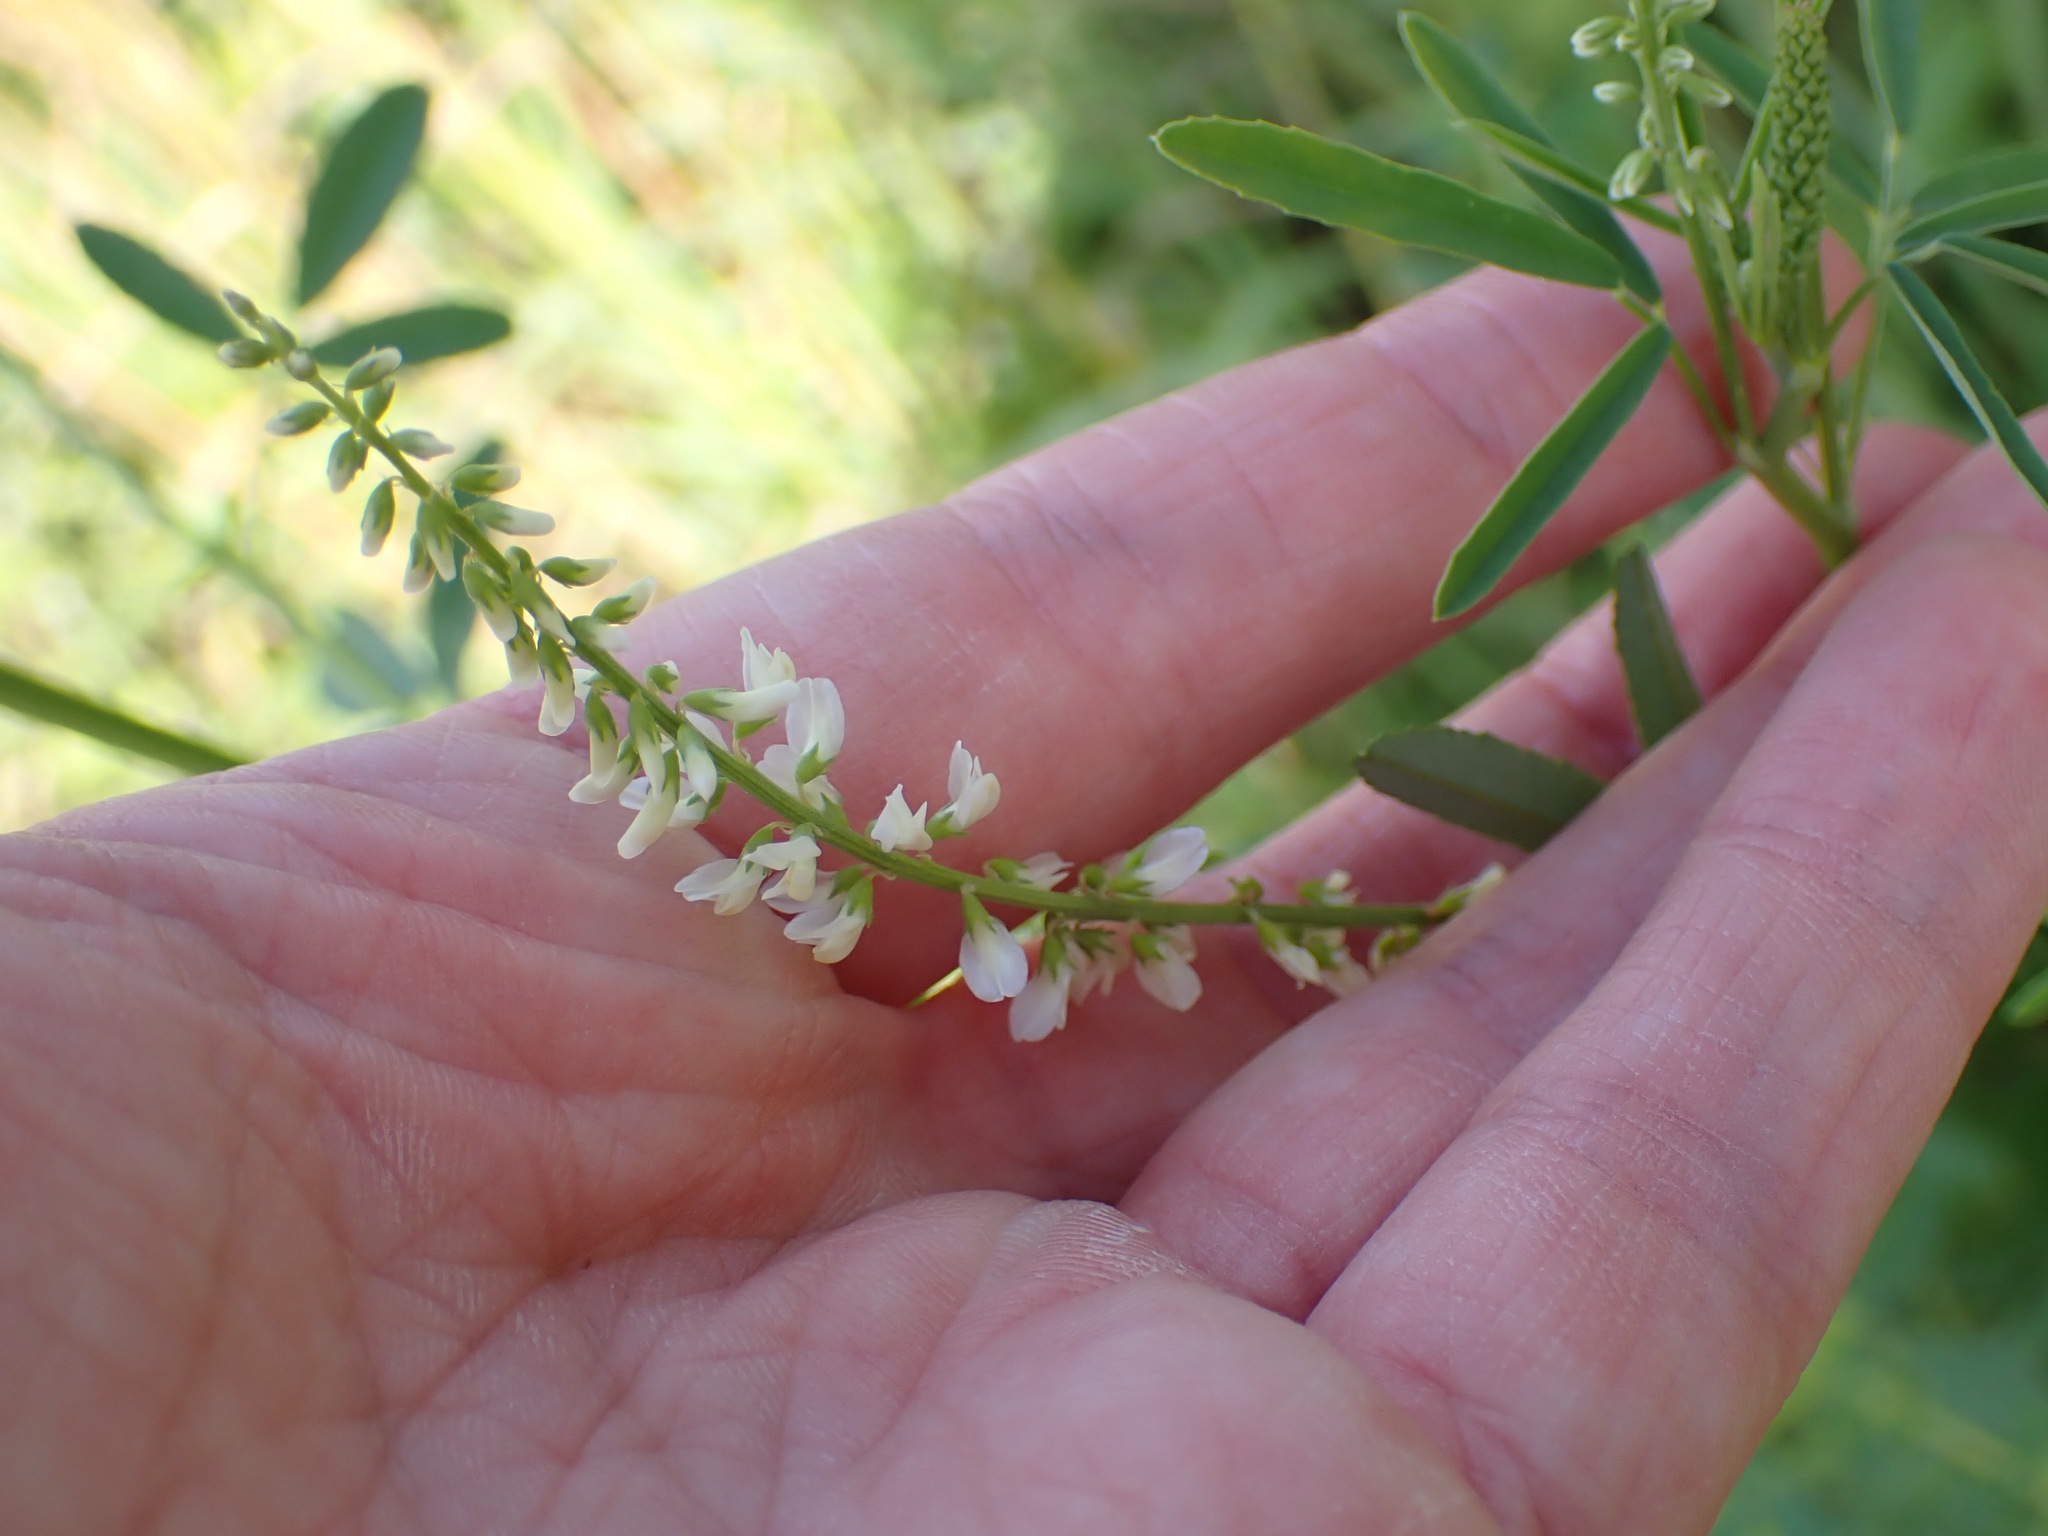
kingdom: Plantae
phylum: Tracheophyta
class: Magnoliopsida
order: Fabales
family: Fabaceae
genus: Melilotus
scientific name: Melilotus albus
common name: White melilot
